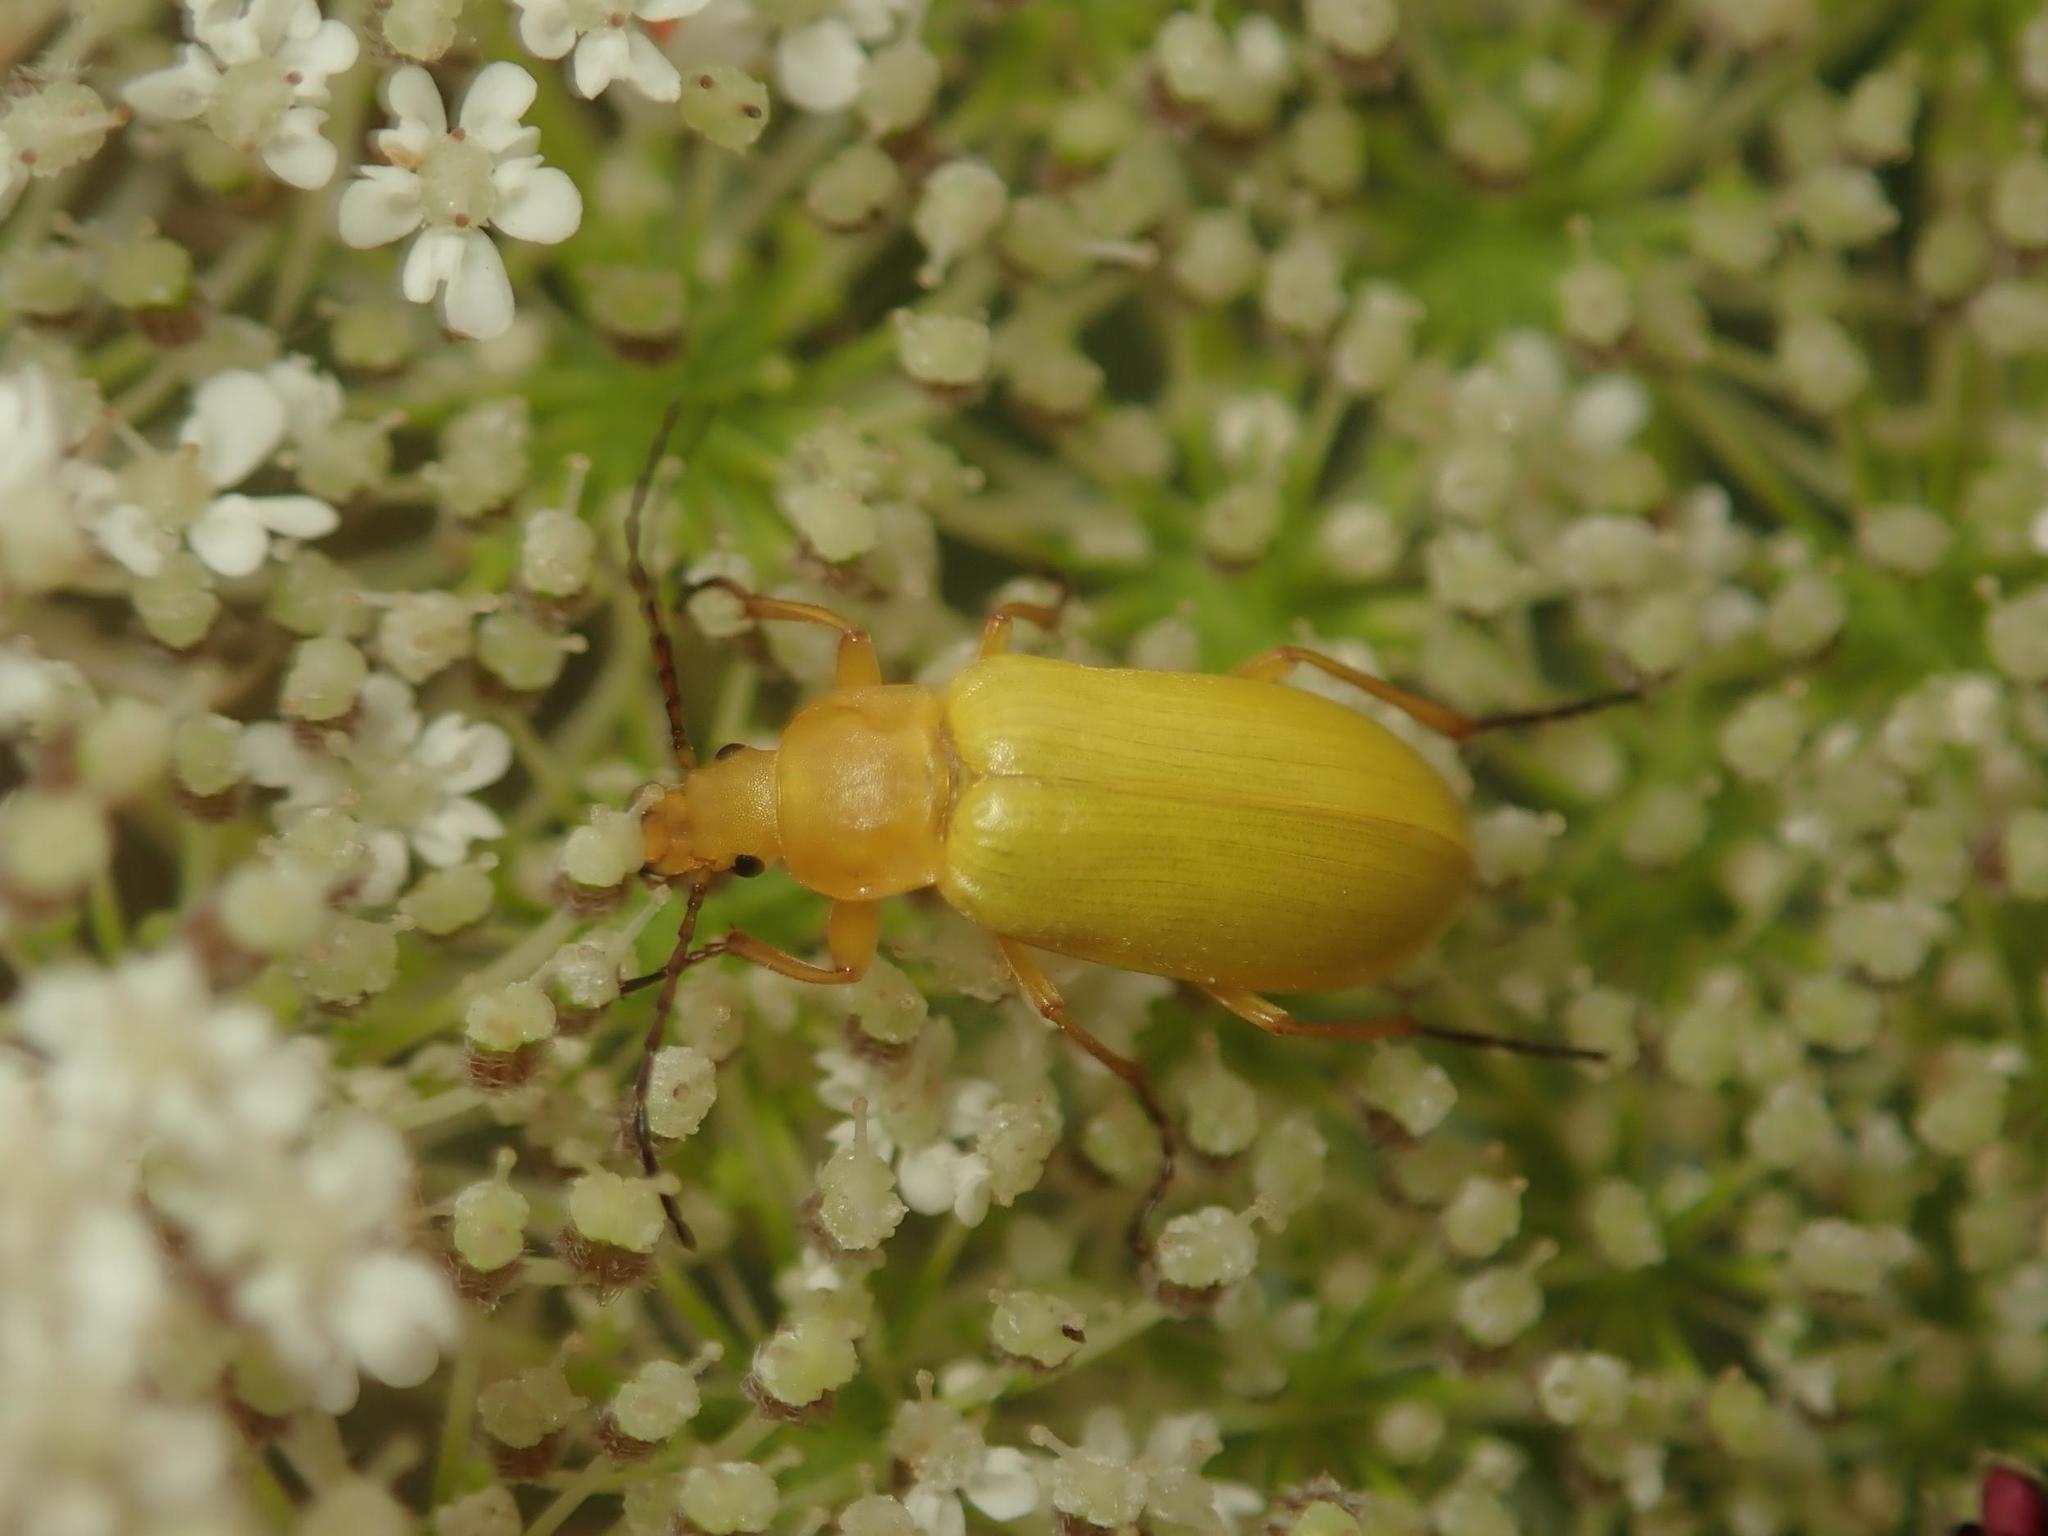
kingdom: Animalia
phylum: Arthropoda
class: Insecta
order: Coleoptera
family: Tenebrionidae
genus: Cteniopus
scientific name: Cteniopus sulphureus
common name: Sulphur beetle
